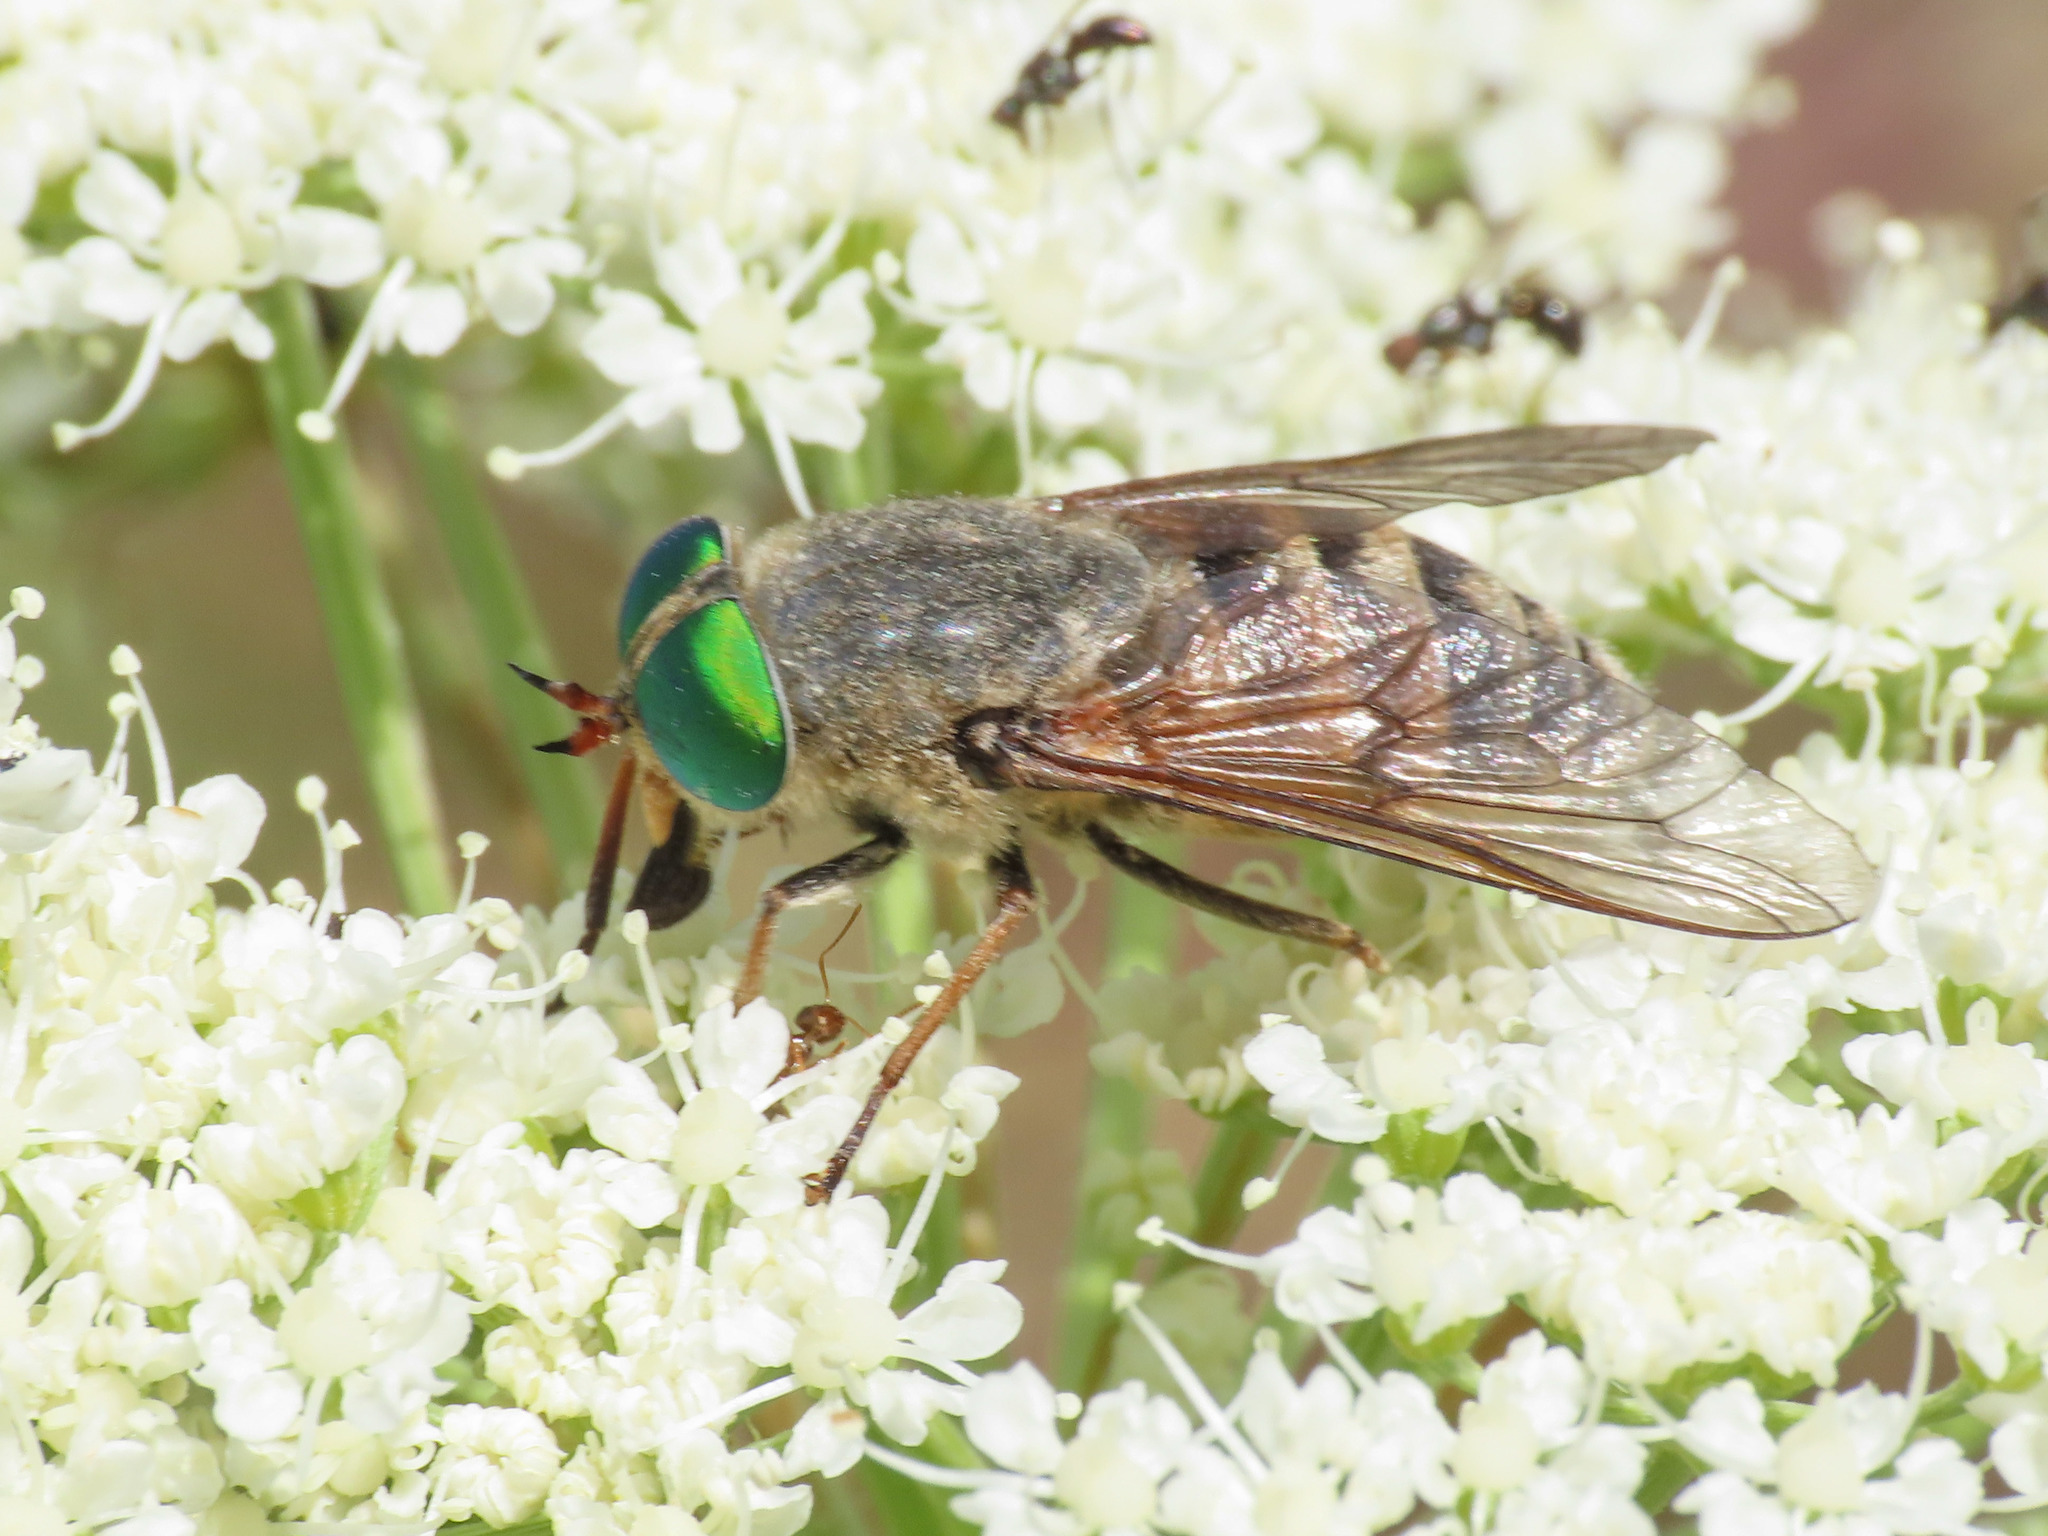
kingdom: Animalia
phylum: Arthropoda
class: Insecta
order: Diptera
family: Tabanidae
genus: Philipomyia
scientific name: Philipomyia aprica
